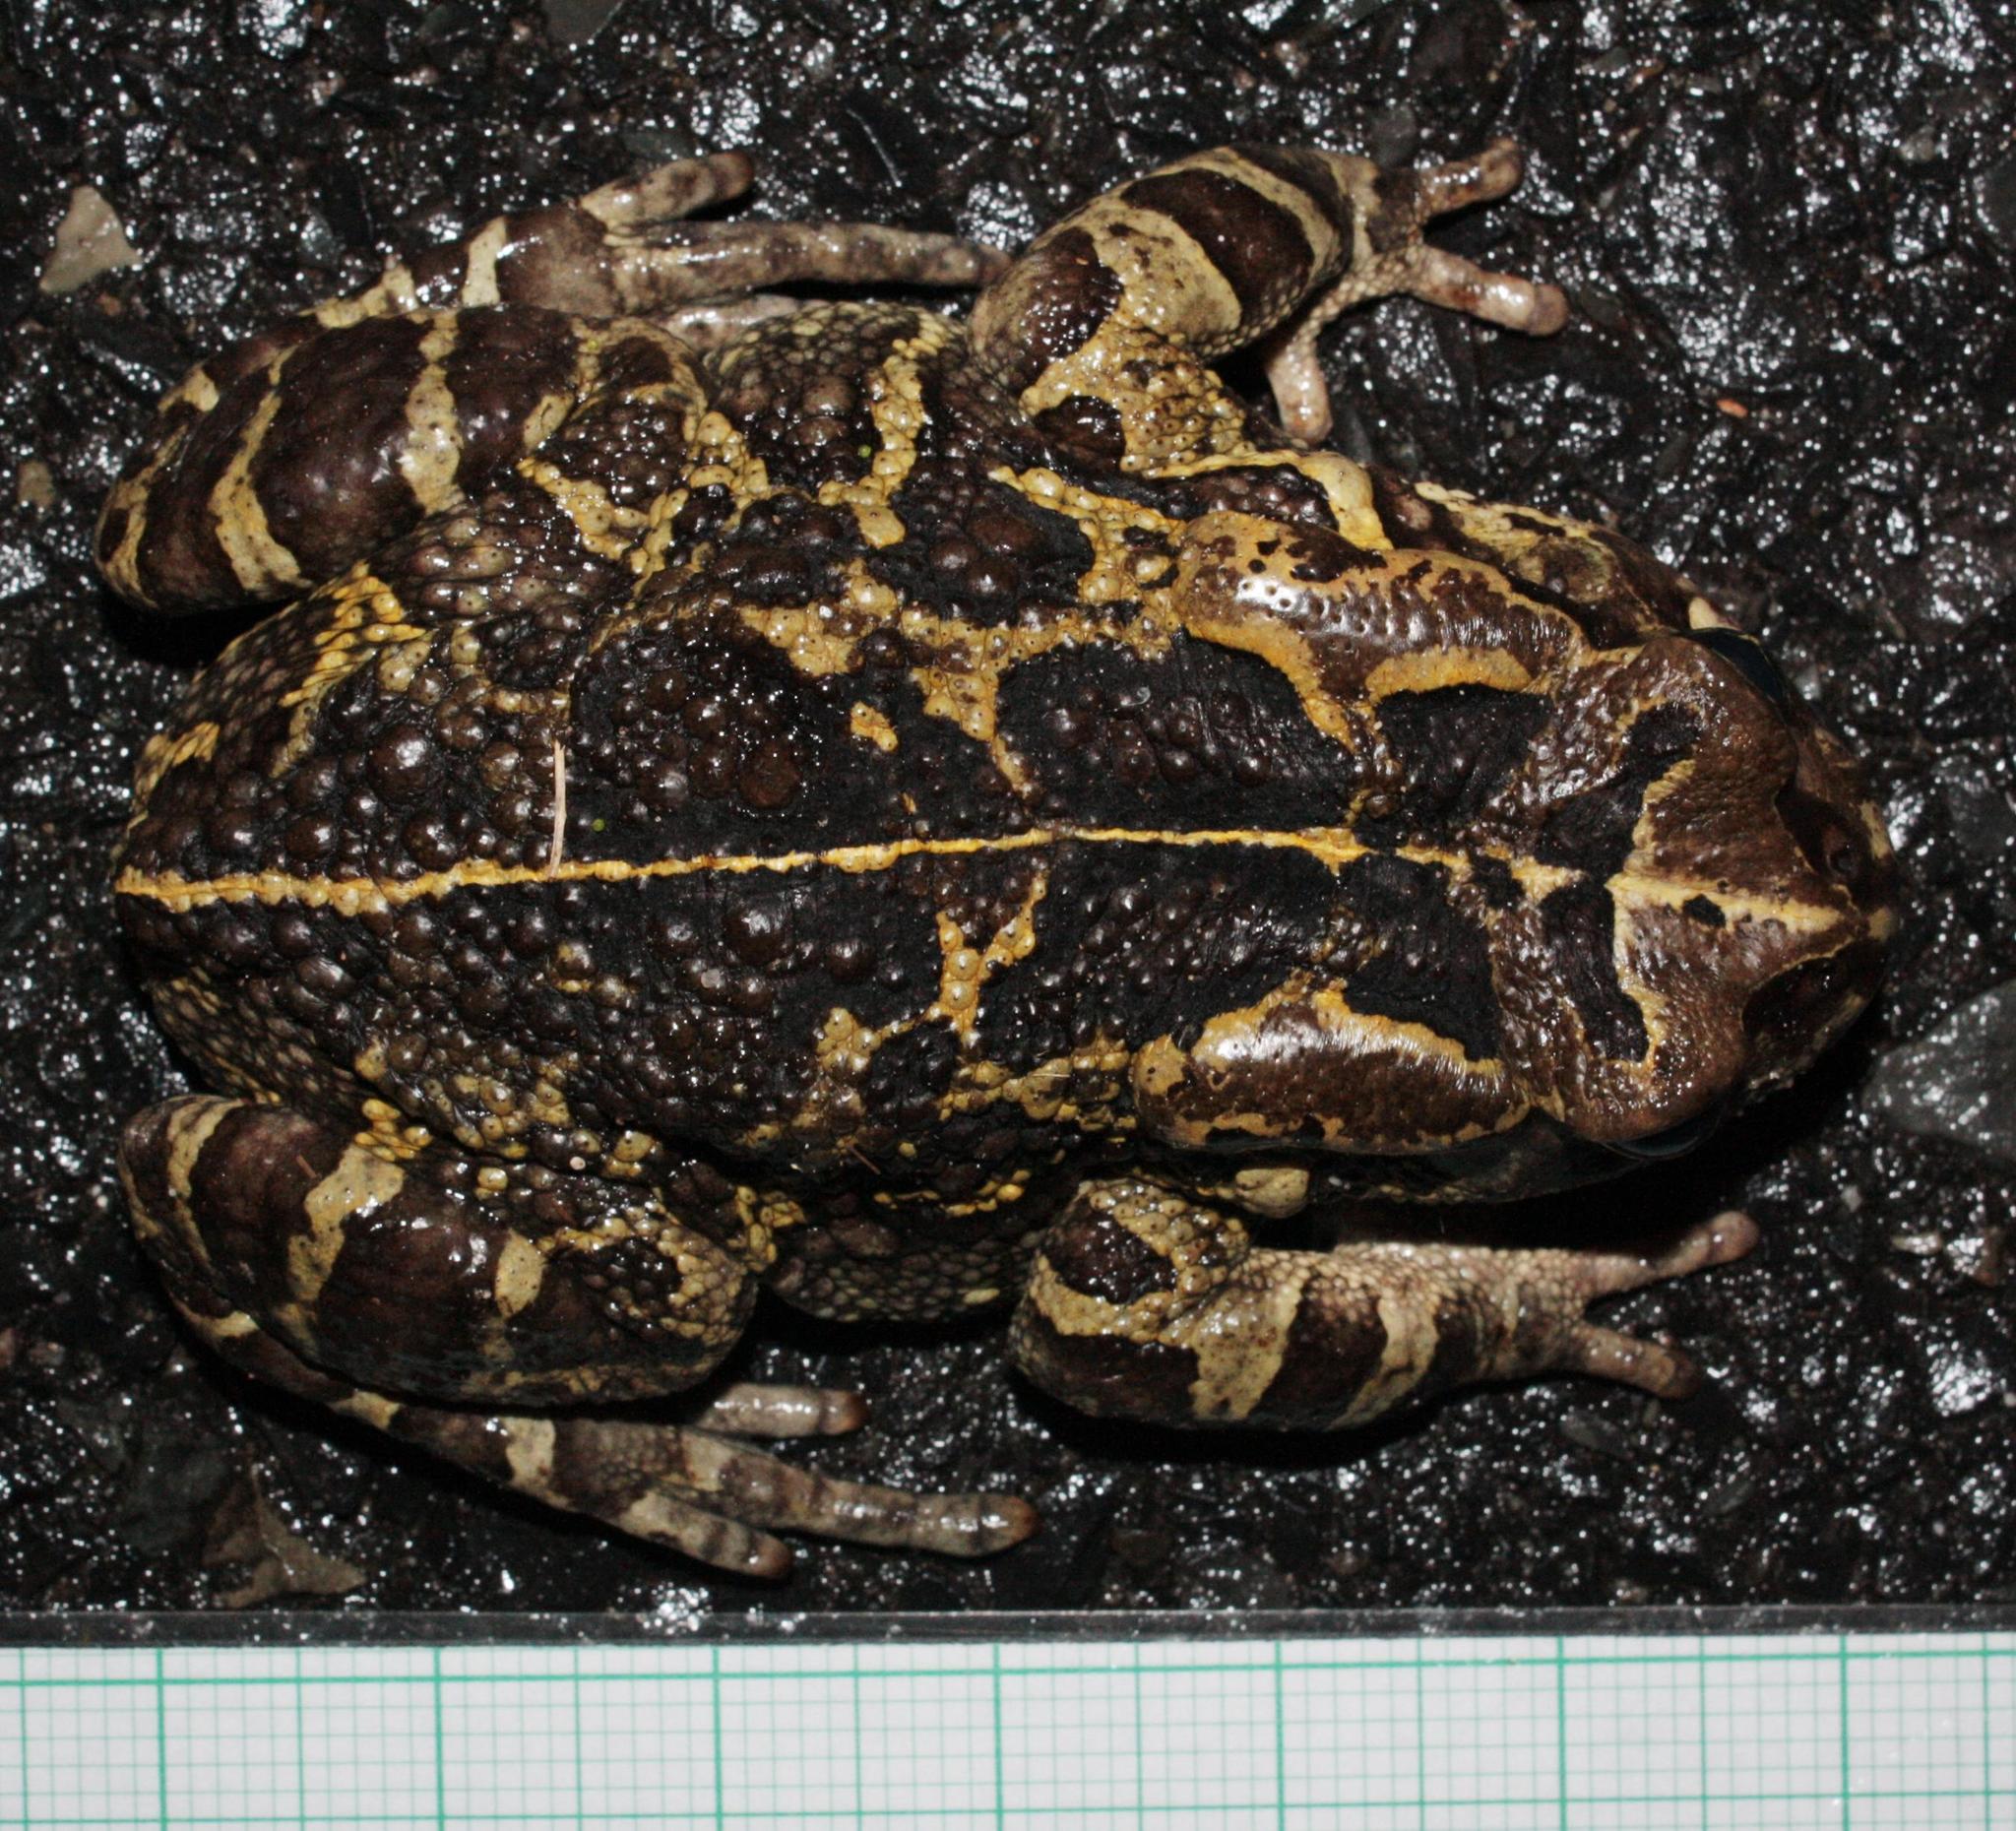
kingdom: Animalia
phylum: Chordata
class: Amphibia
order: Anura
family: Bufonidae
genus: Sclerophrys
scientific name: Sclerophrys pantherina
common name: Panther toad
